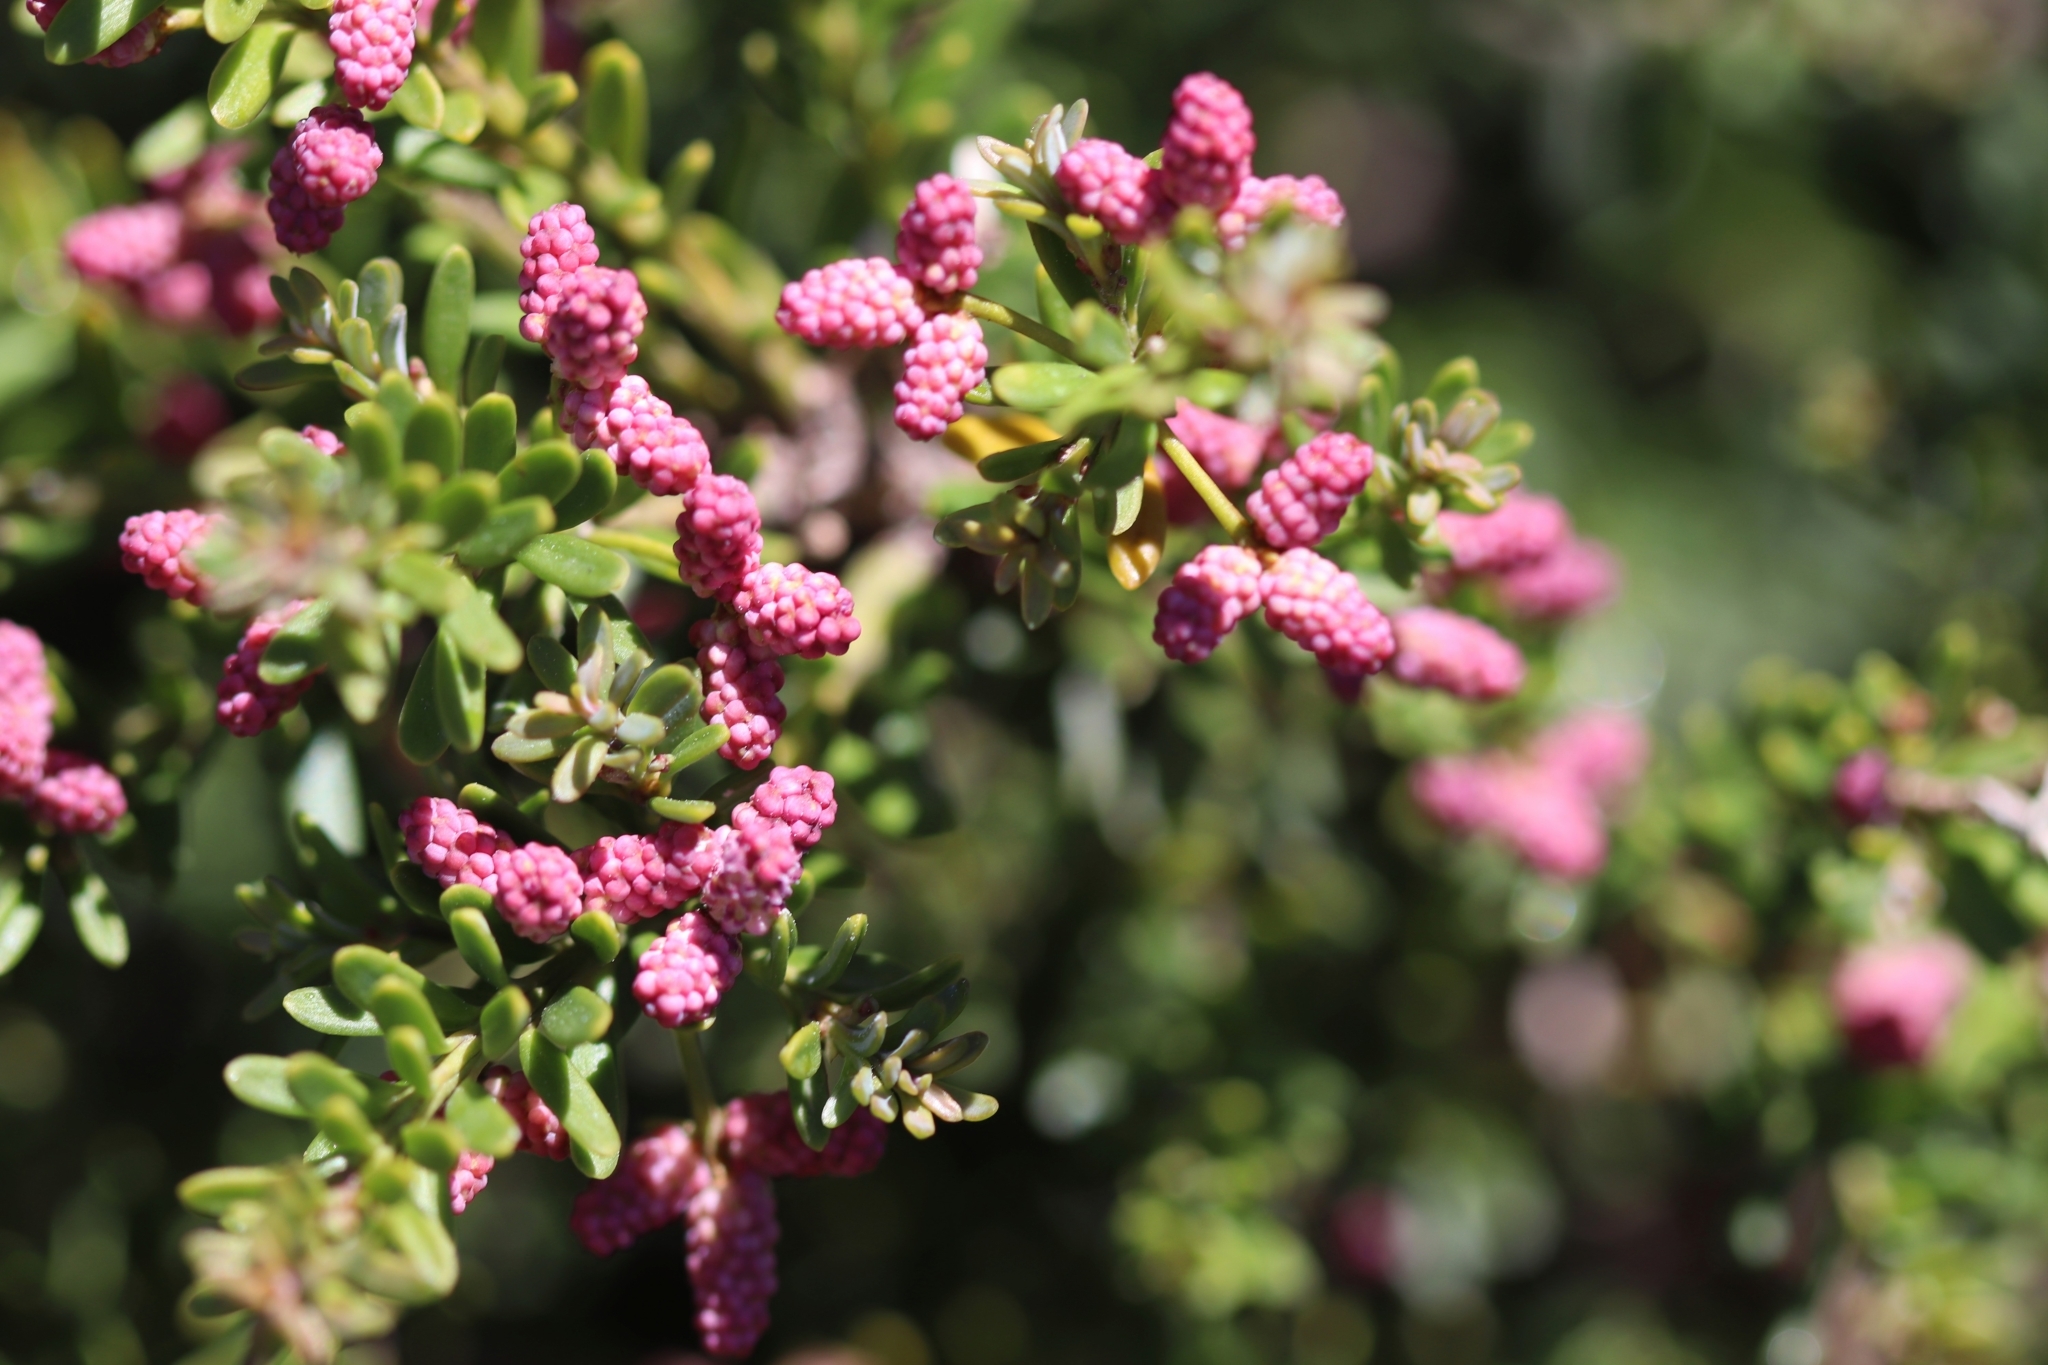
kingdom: Plantae
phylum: Tracheophyta
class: Pinopsida
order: Pinales
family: Podocarpaceae
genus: Podocarpus
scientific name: Podocarpus lawrencei
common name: Mountain plum pine
